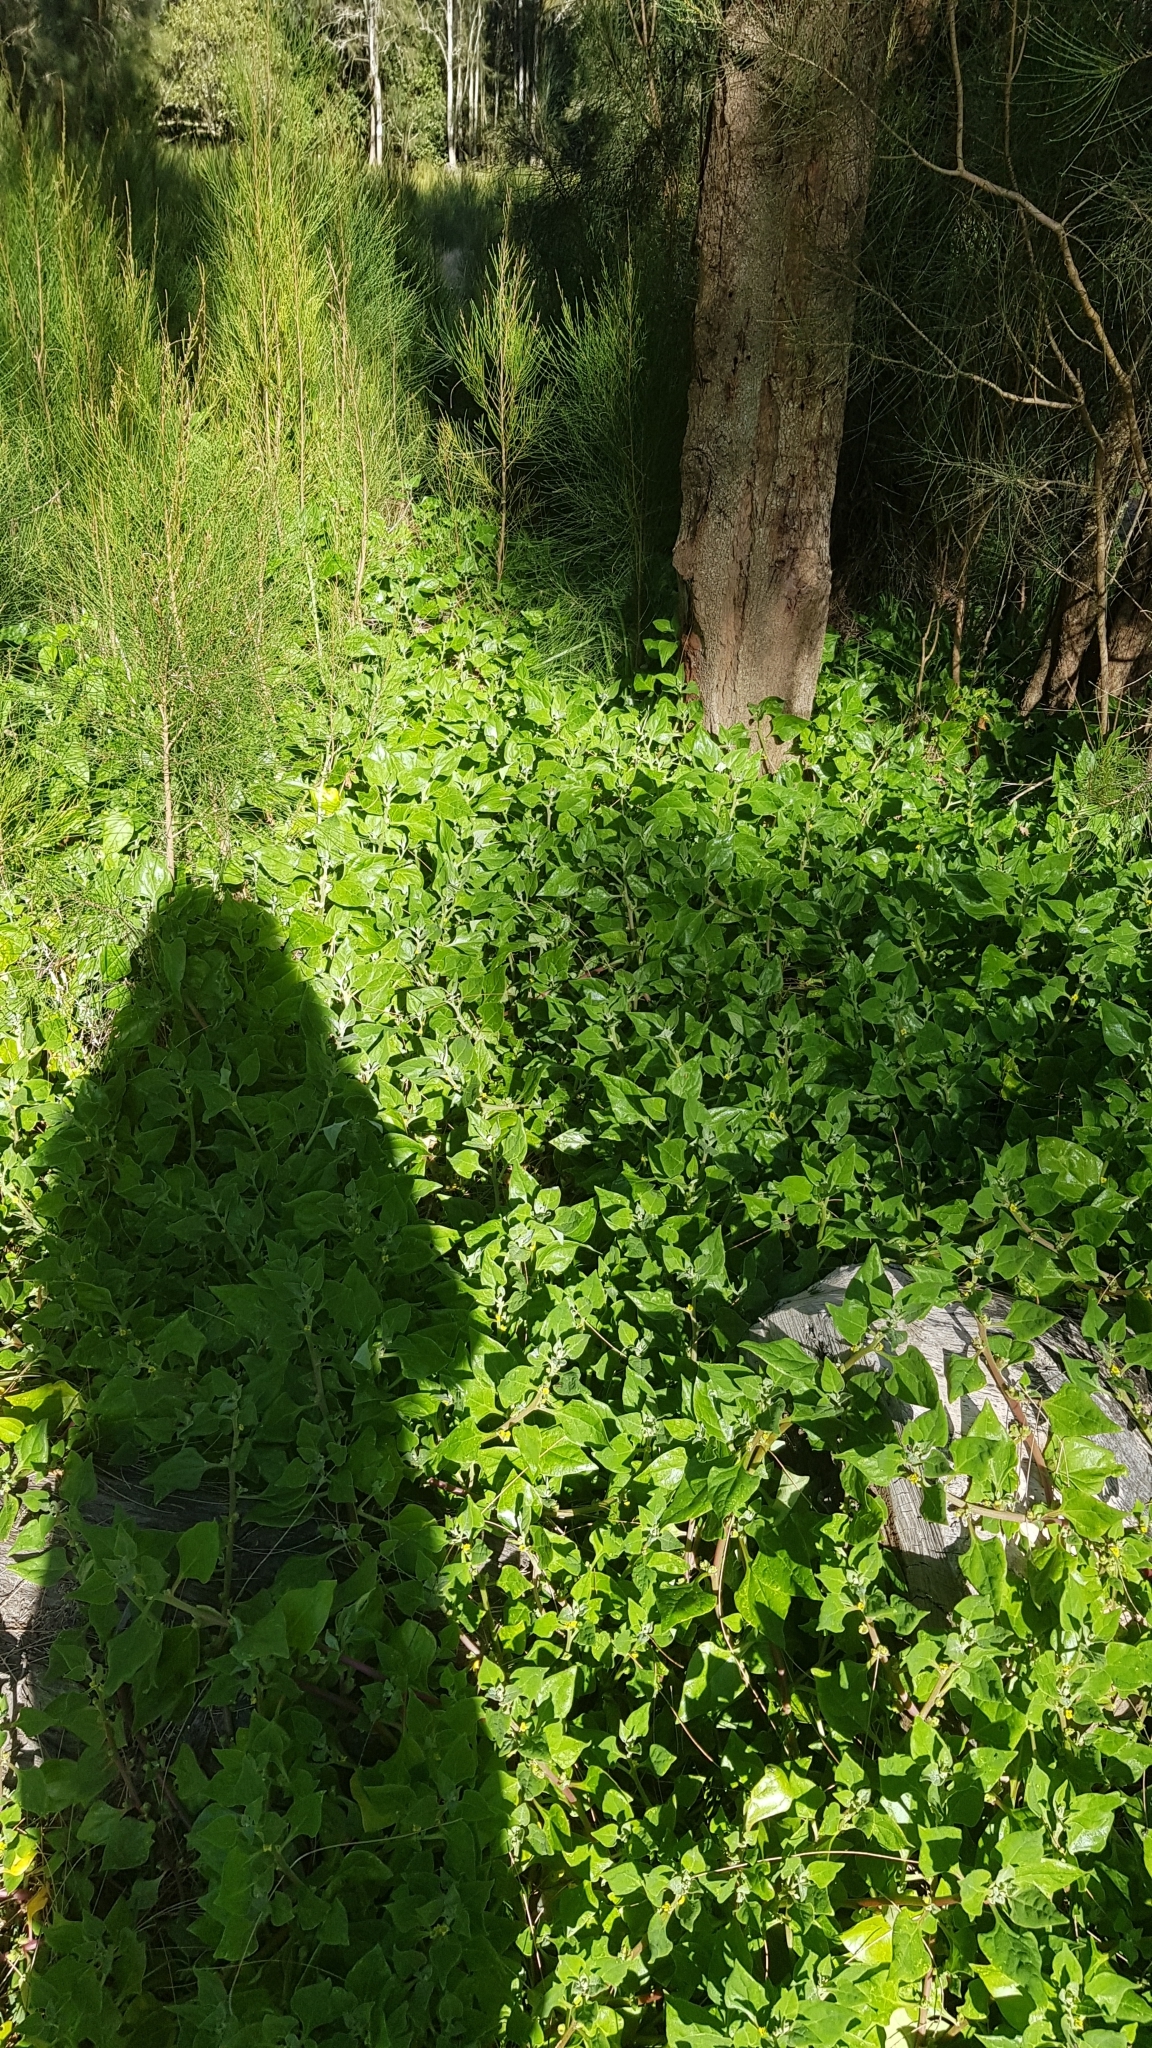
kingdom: Plantae
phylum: Tracheophyta
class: Magnoliopsida
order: Caryophyllales
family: Aizoaceae
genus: Tetragonia
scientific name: Tetragonia tetragonoides
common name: New zealand-spinach
